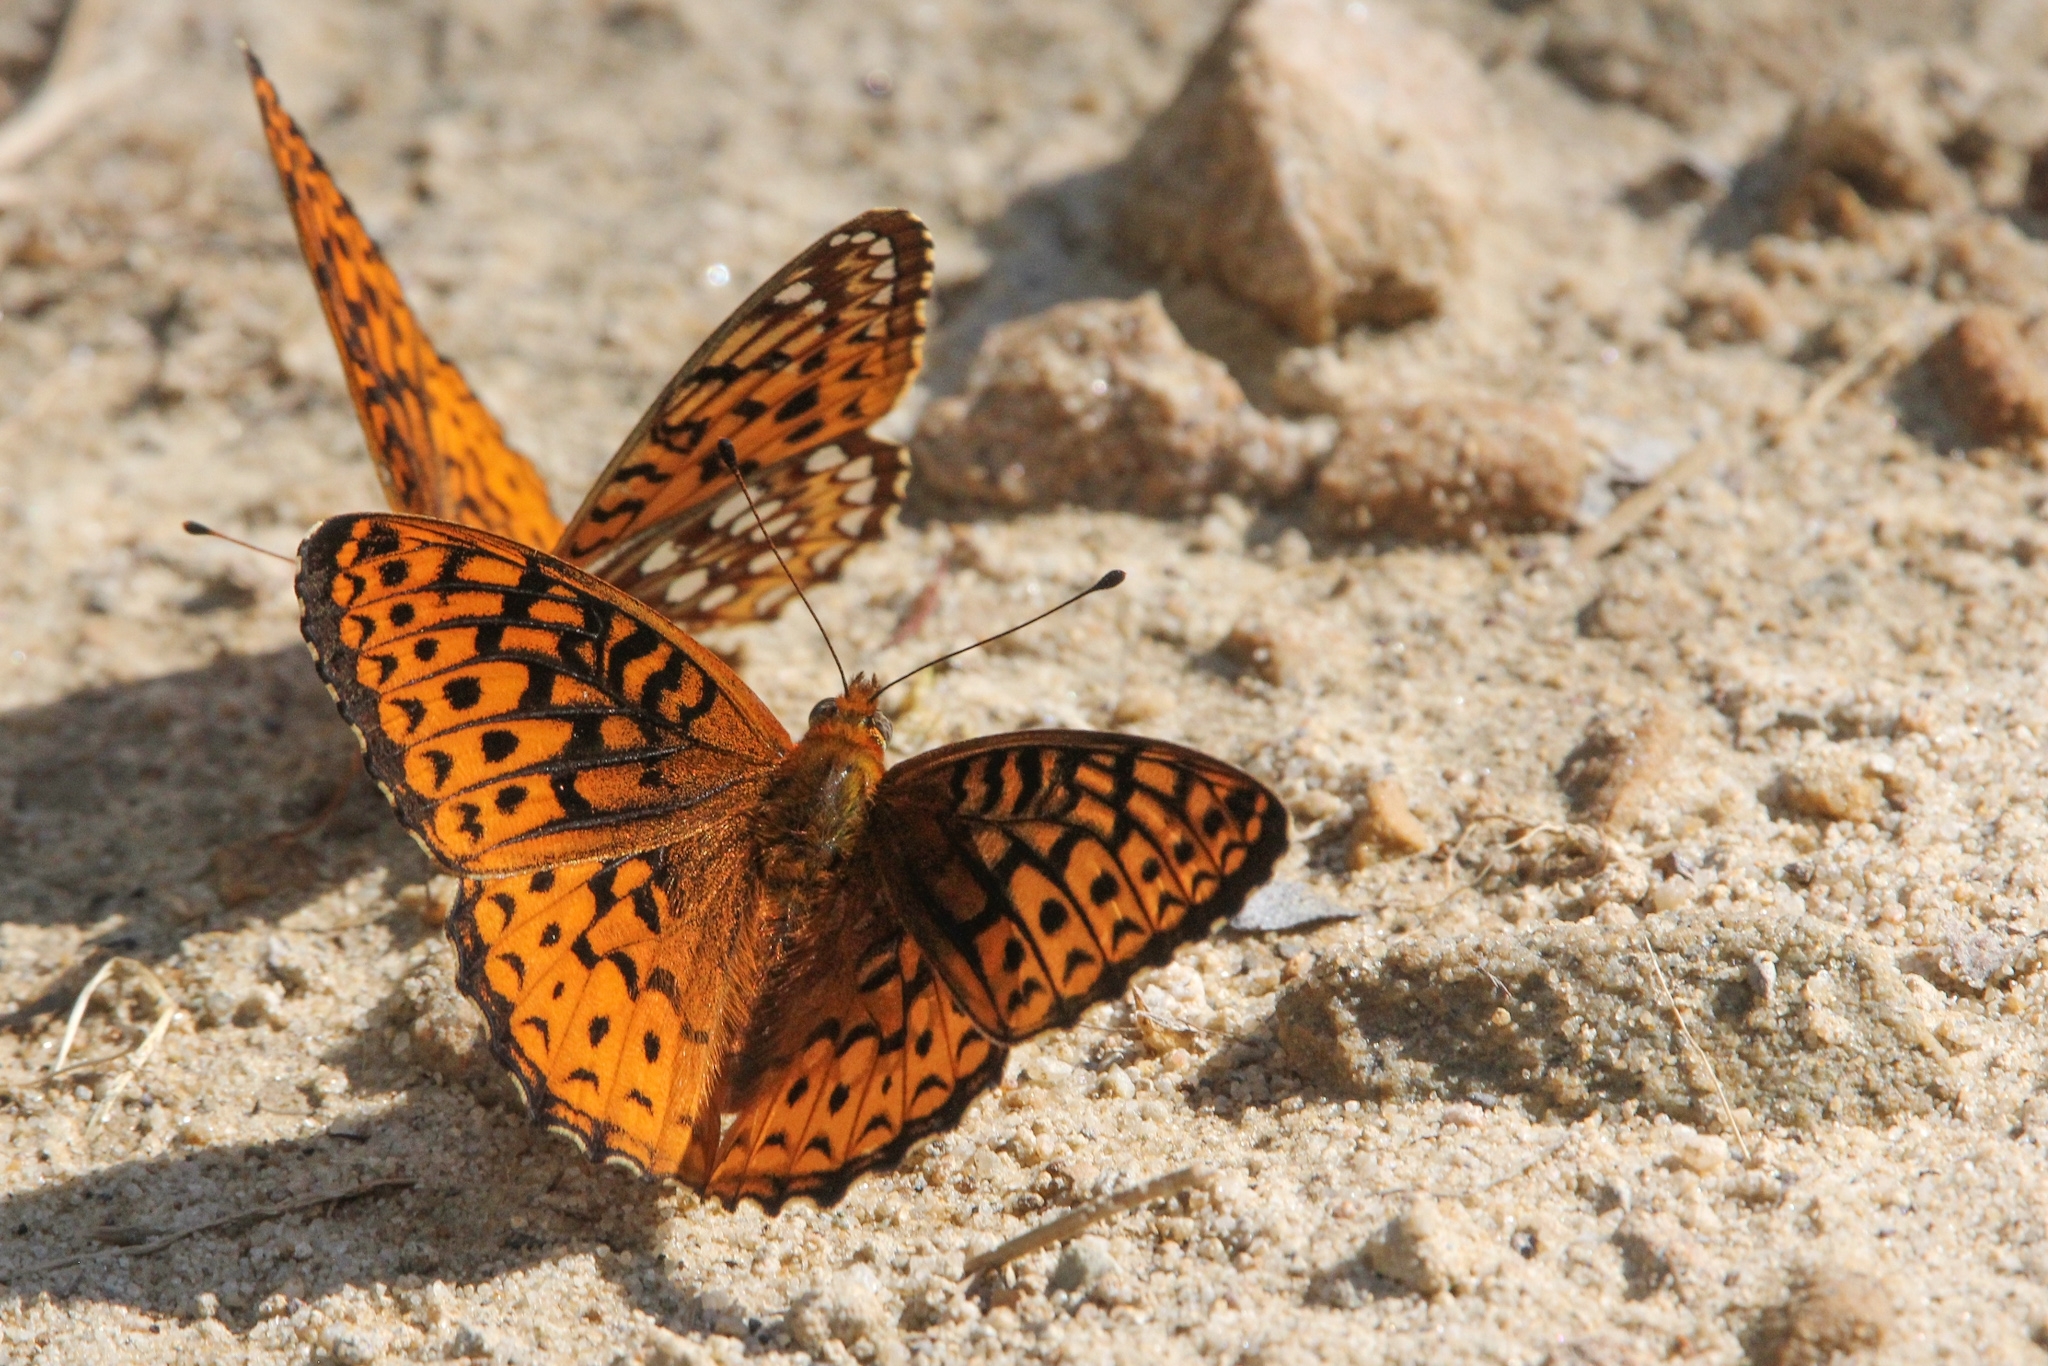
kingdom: Animalia
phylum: Arthropoda
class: Insecta
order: Lepidoptera
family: Nymphalidae
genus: Speyeria
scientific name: Speyeria atlantis
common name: Atlantis fritillary
